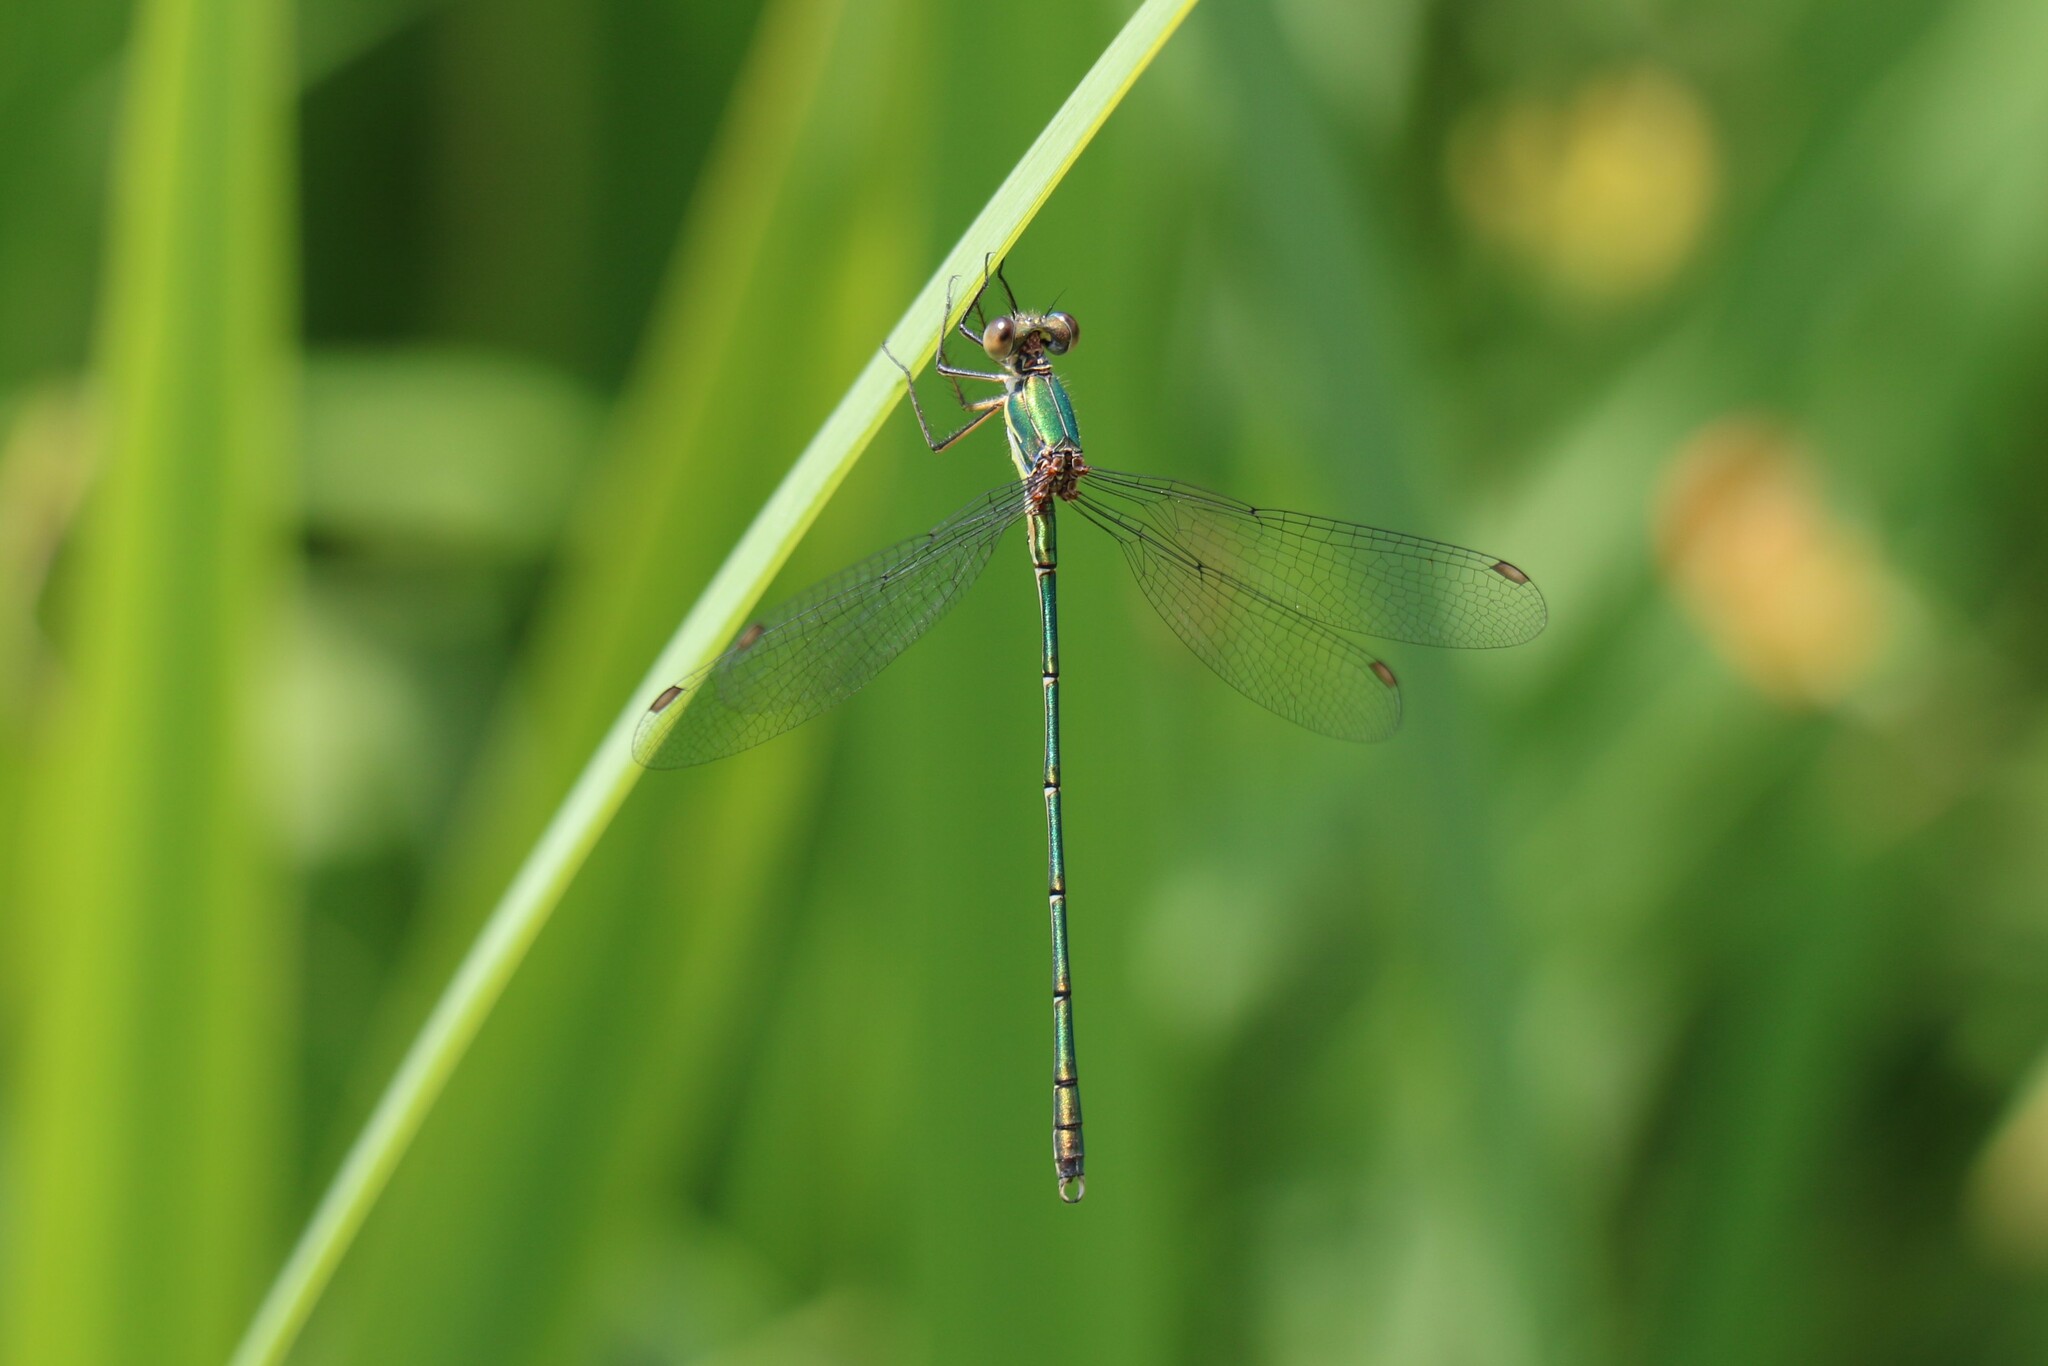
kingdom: Animalia
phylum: Arthropoda
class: Insecta
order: Odonata
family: Lestidae
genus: Chalcolestes
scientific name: Chalcolestes viridis
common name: Green emerald damselfly
